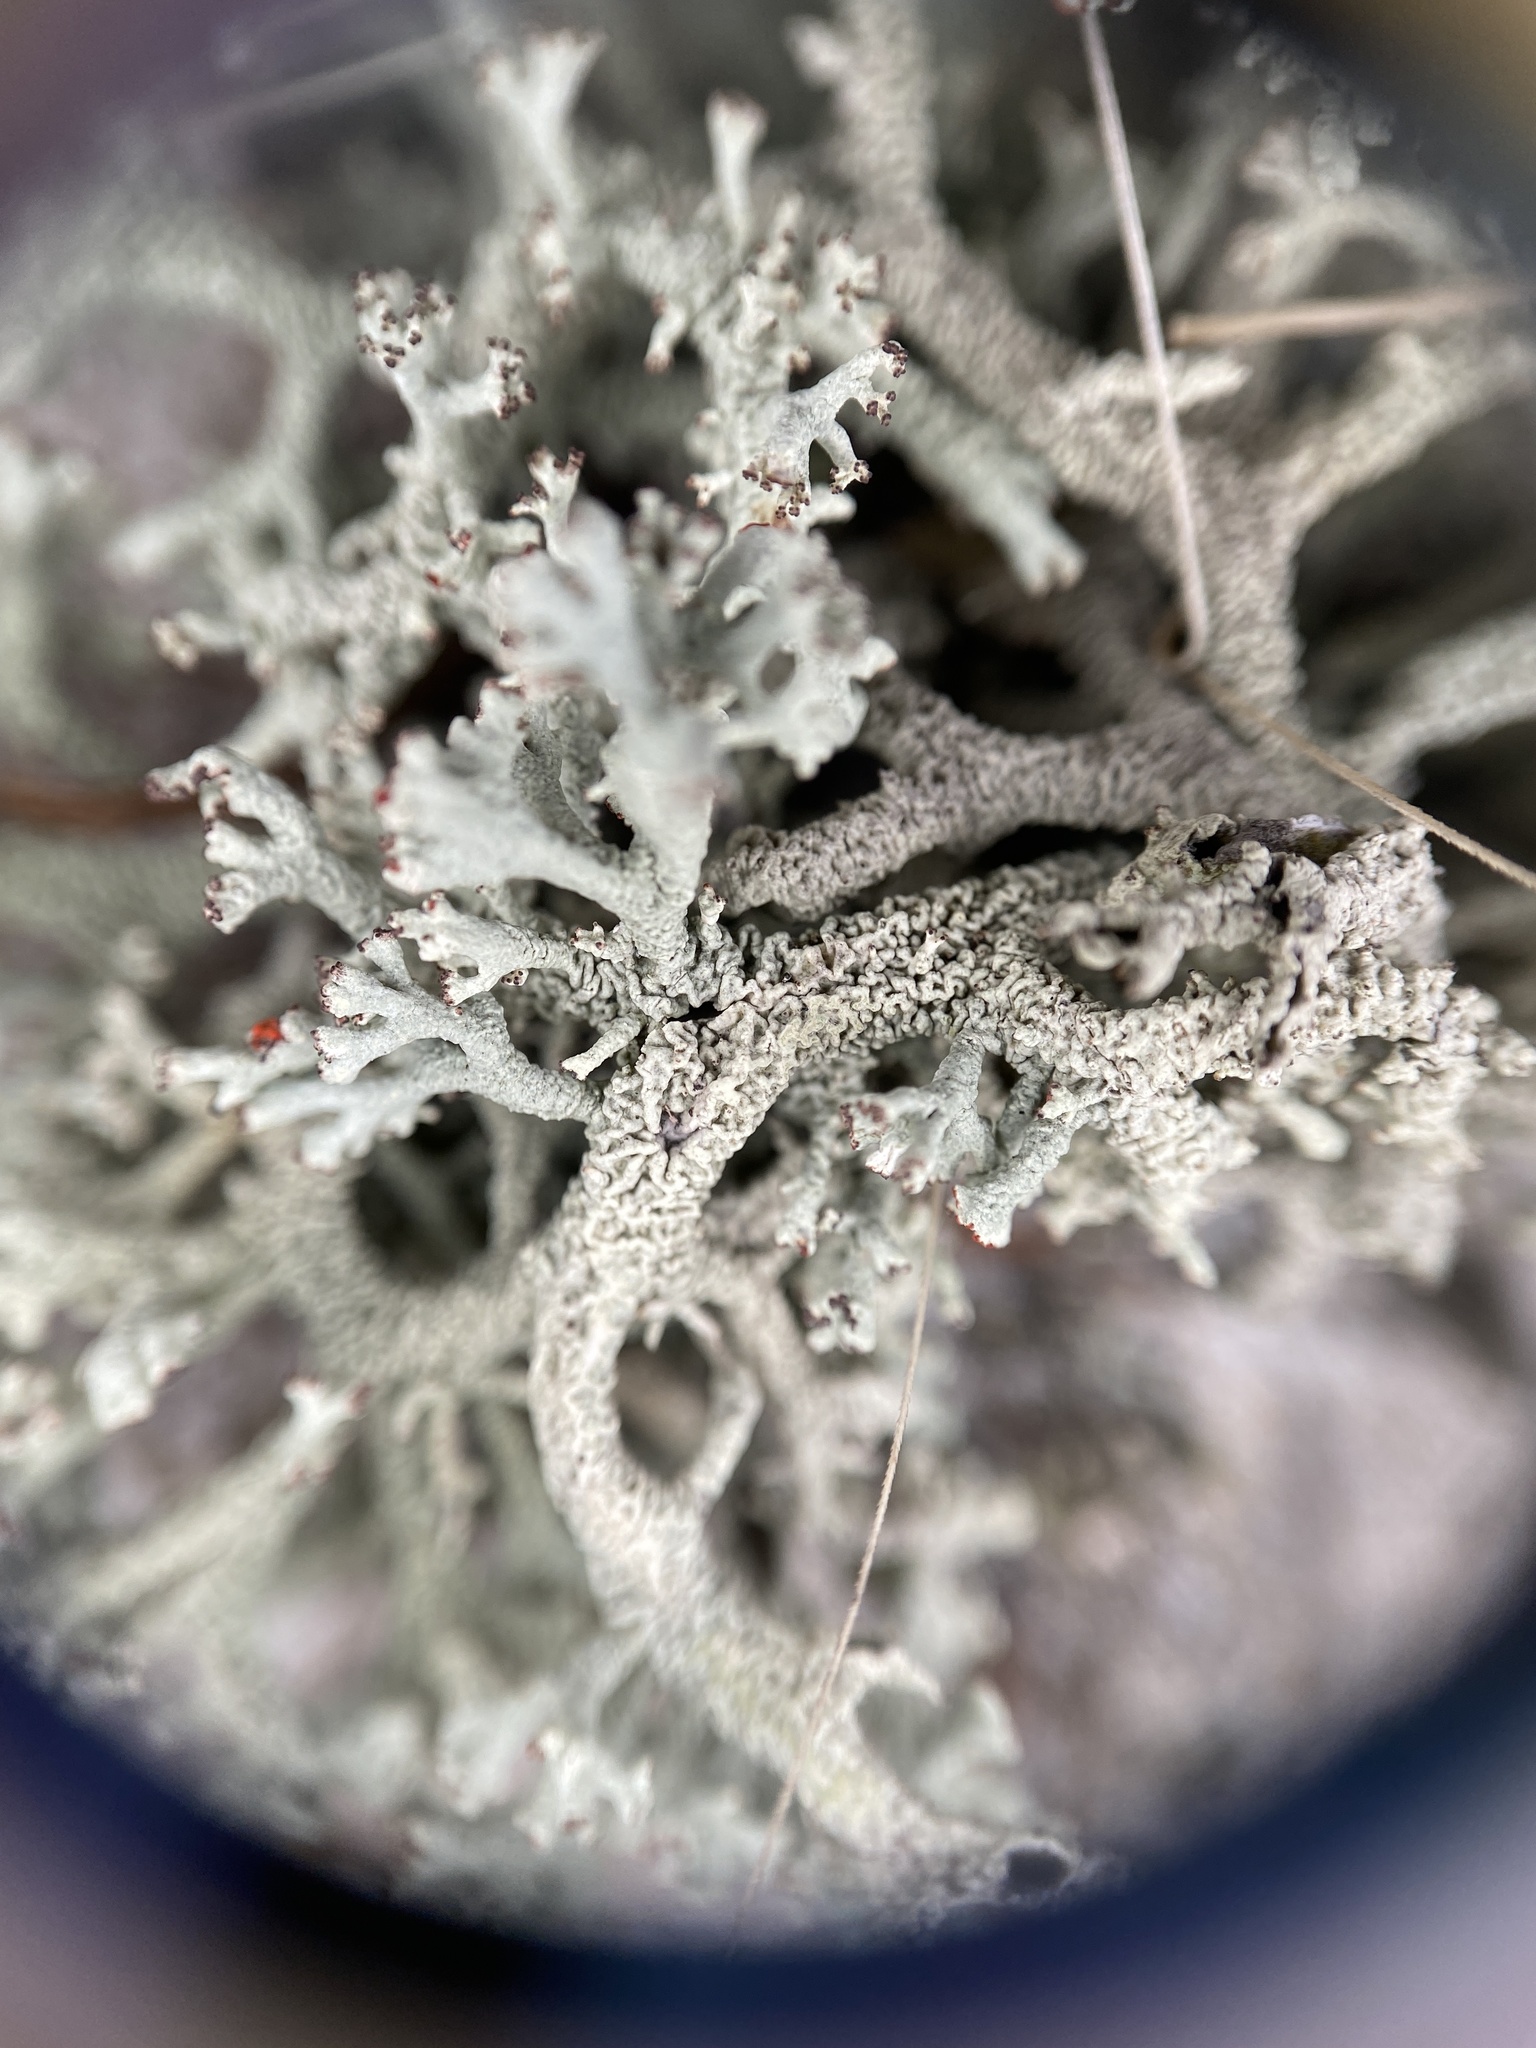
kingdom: Fungi
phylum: Ascomycota
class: Lecanoromycetes
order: Lecanorales
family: Cladoniaceae
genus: Cladonia
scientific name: Cladonia leporina
